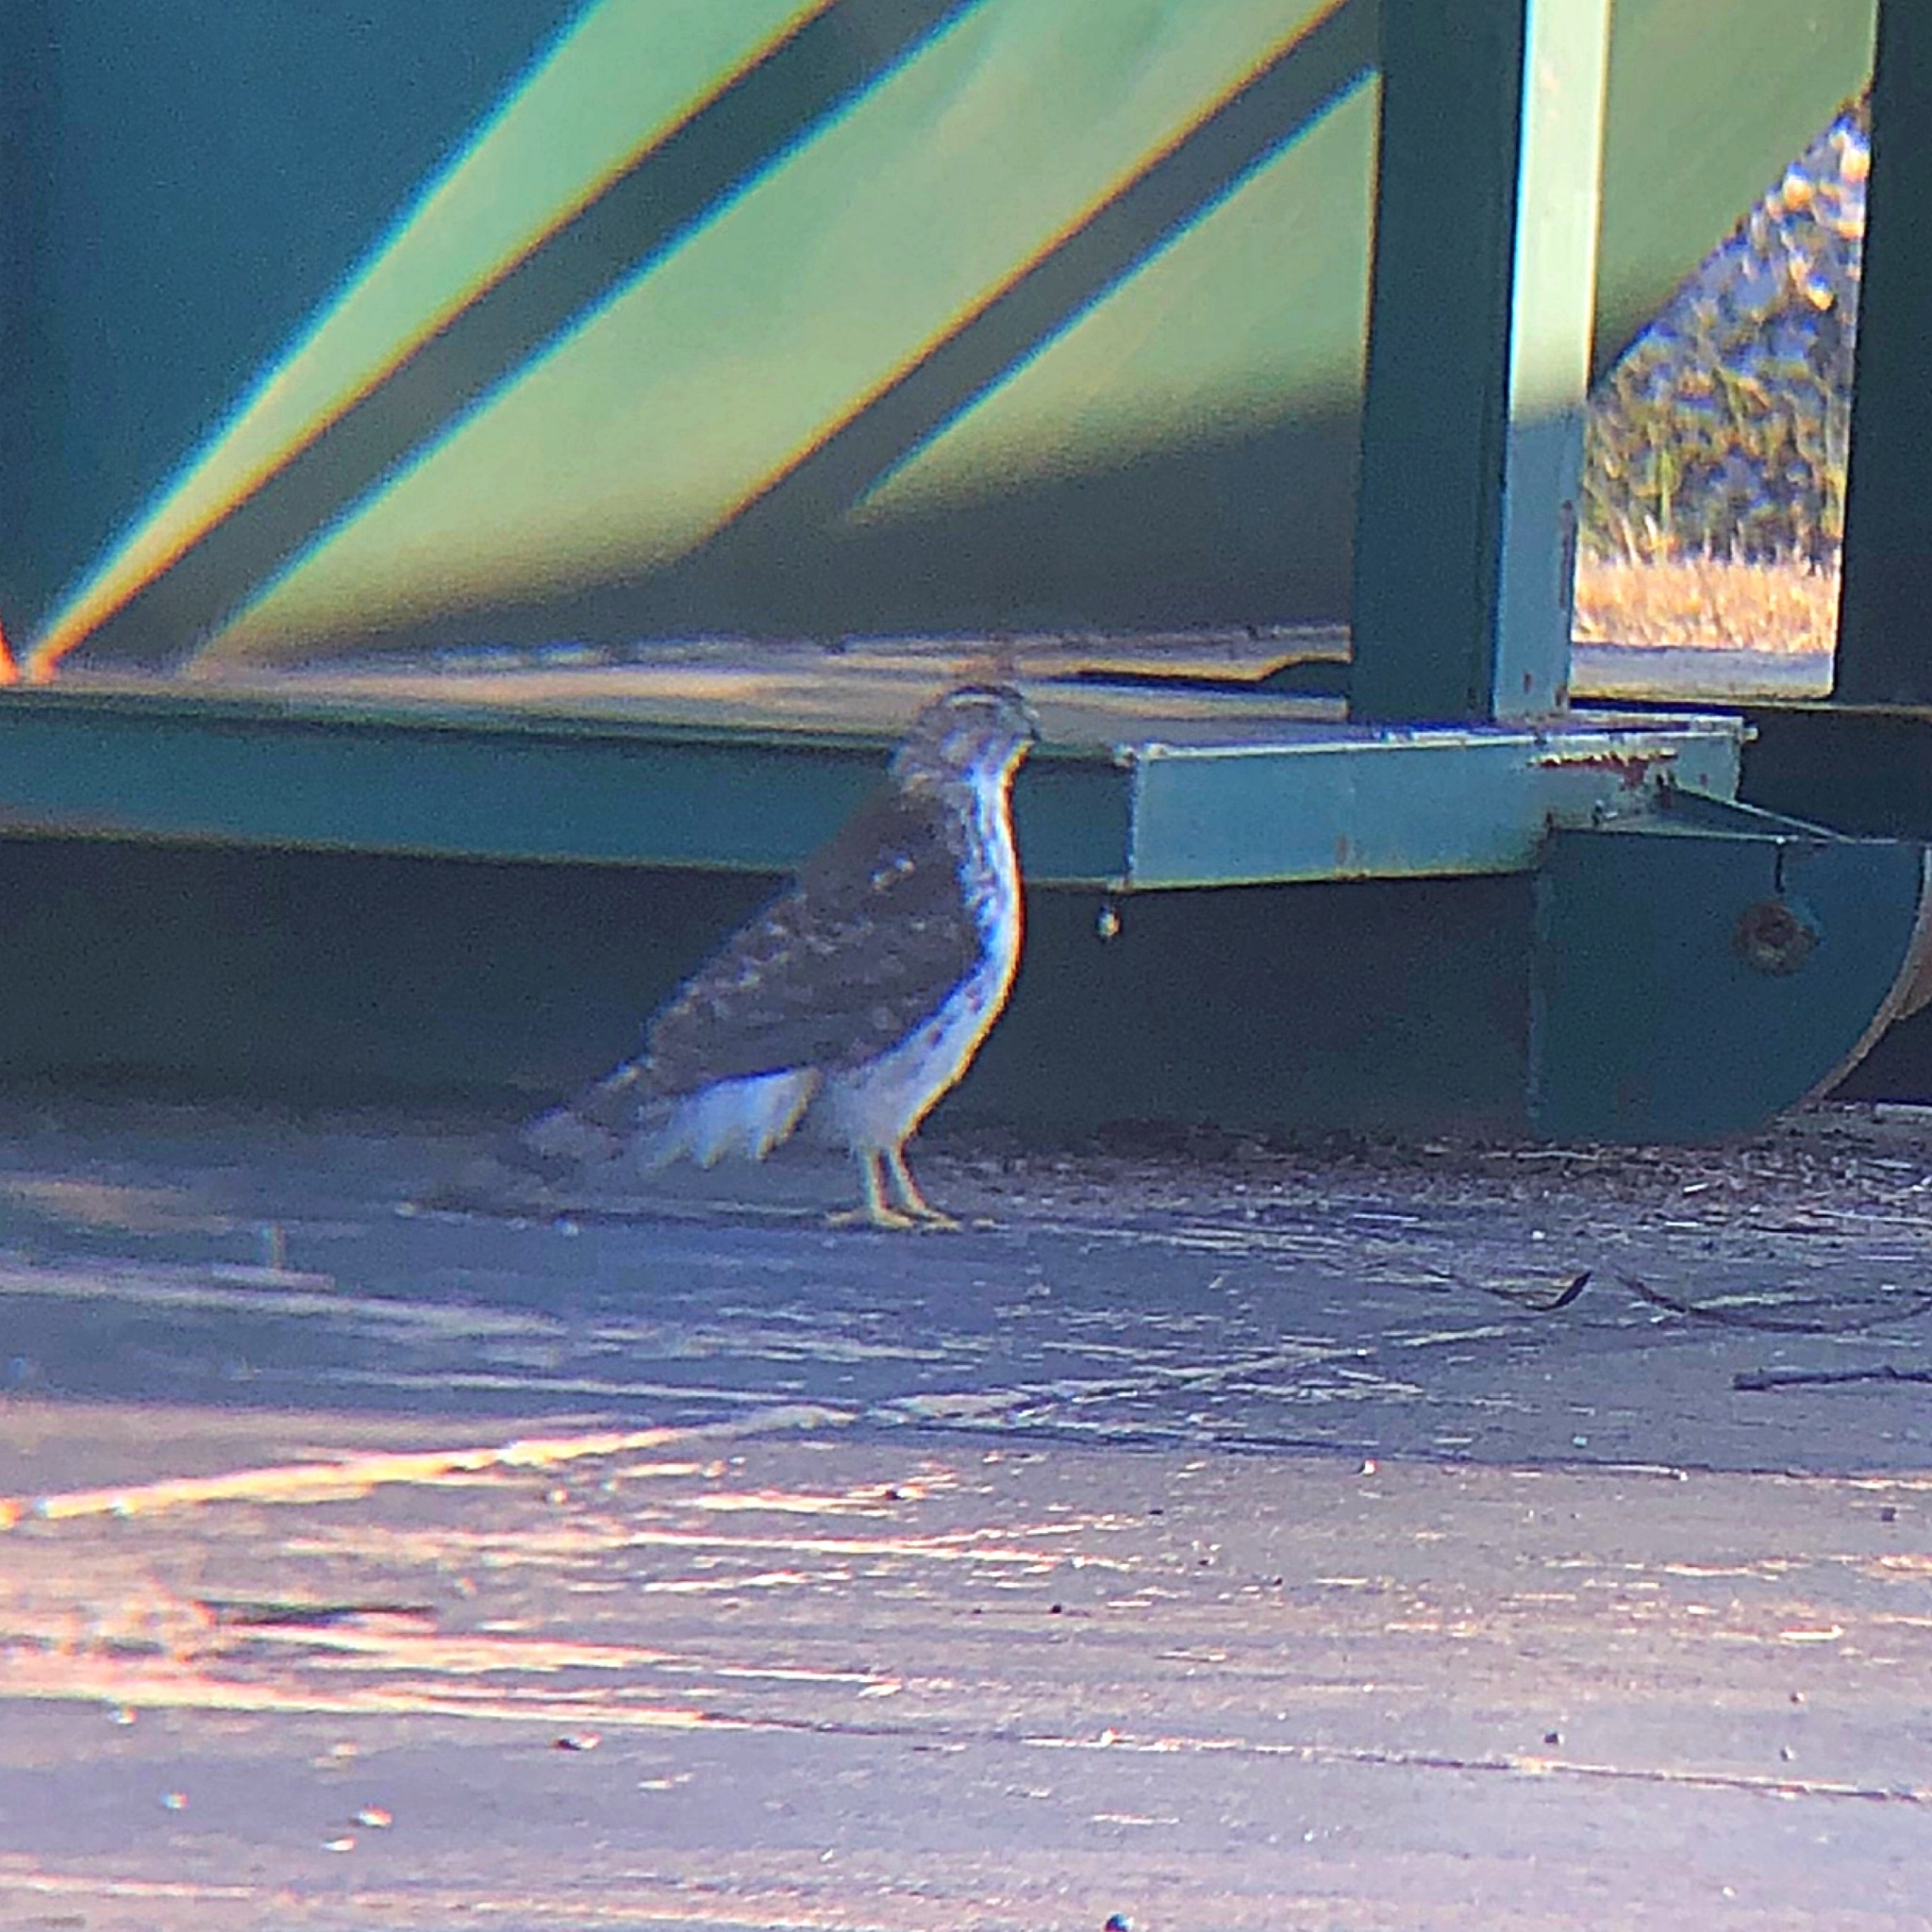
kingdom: Animalia
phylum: Chordata
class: Aves
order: Accipitriformes
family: Accipitridae
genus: Accipiter
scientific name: Accipiter cooperii
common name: Cooper's hawk
